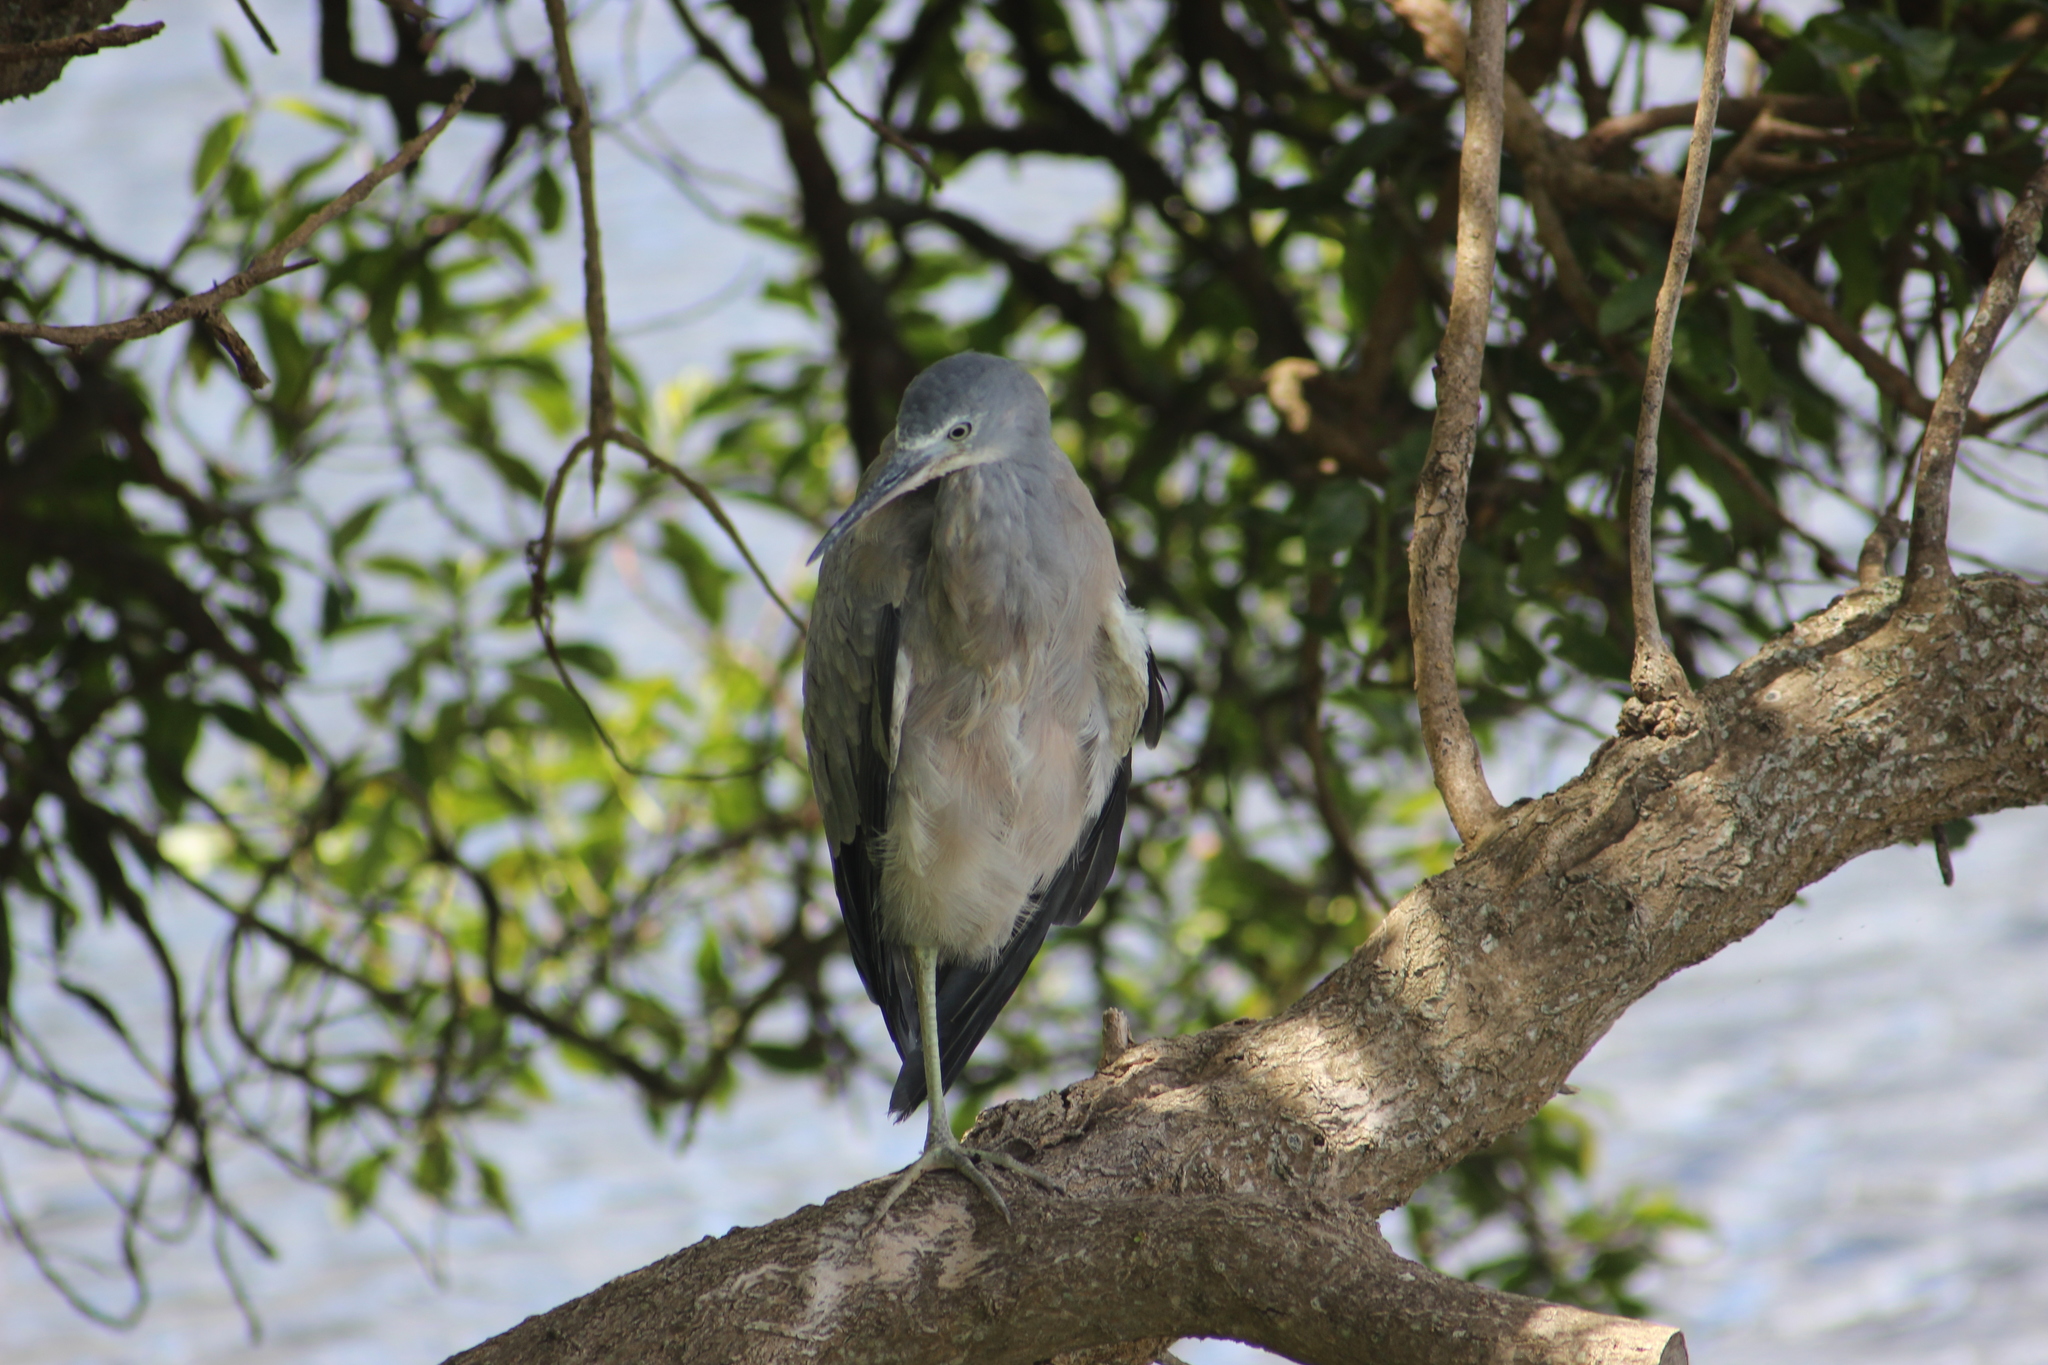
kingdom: Animalia
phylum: Chordata
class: Aves
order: Pelecaniformes
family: Ardeidae
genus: Egretta
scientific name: Egretta novaehollandiae
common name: White-faced heron
